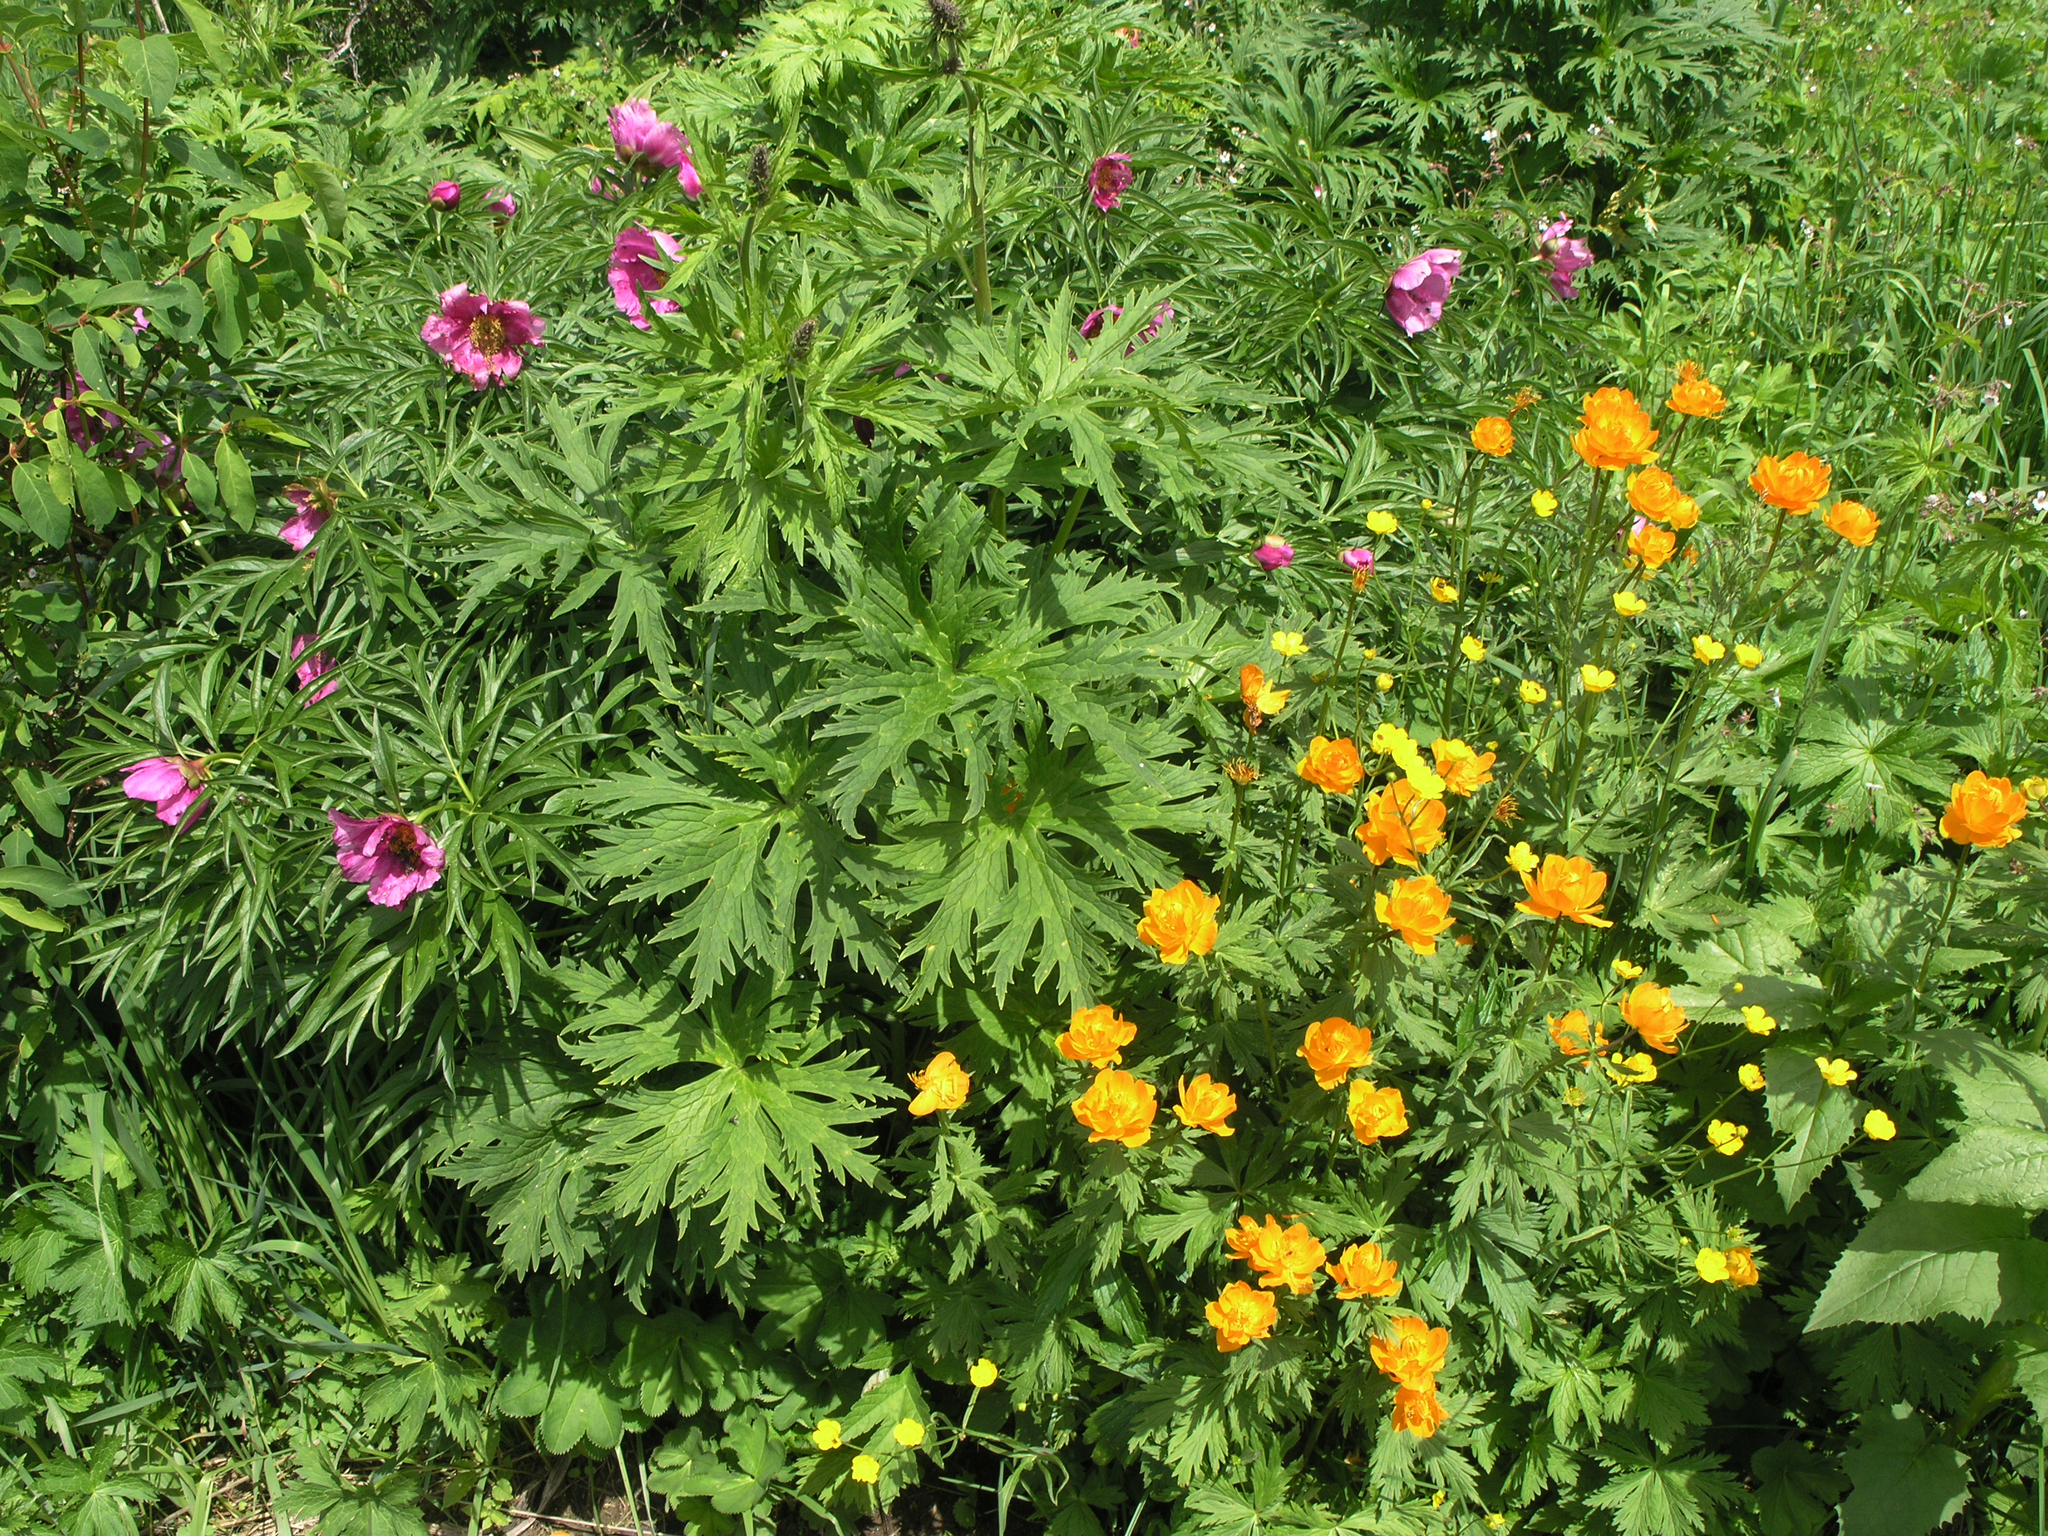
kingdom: Plantae
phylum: Tracheophyta
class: Magnoliopsida
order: Saxifragales
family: Paeoniaceae
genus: Paeonia
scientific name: Paeonia anomala
